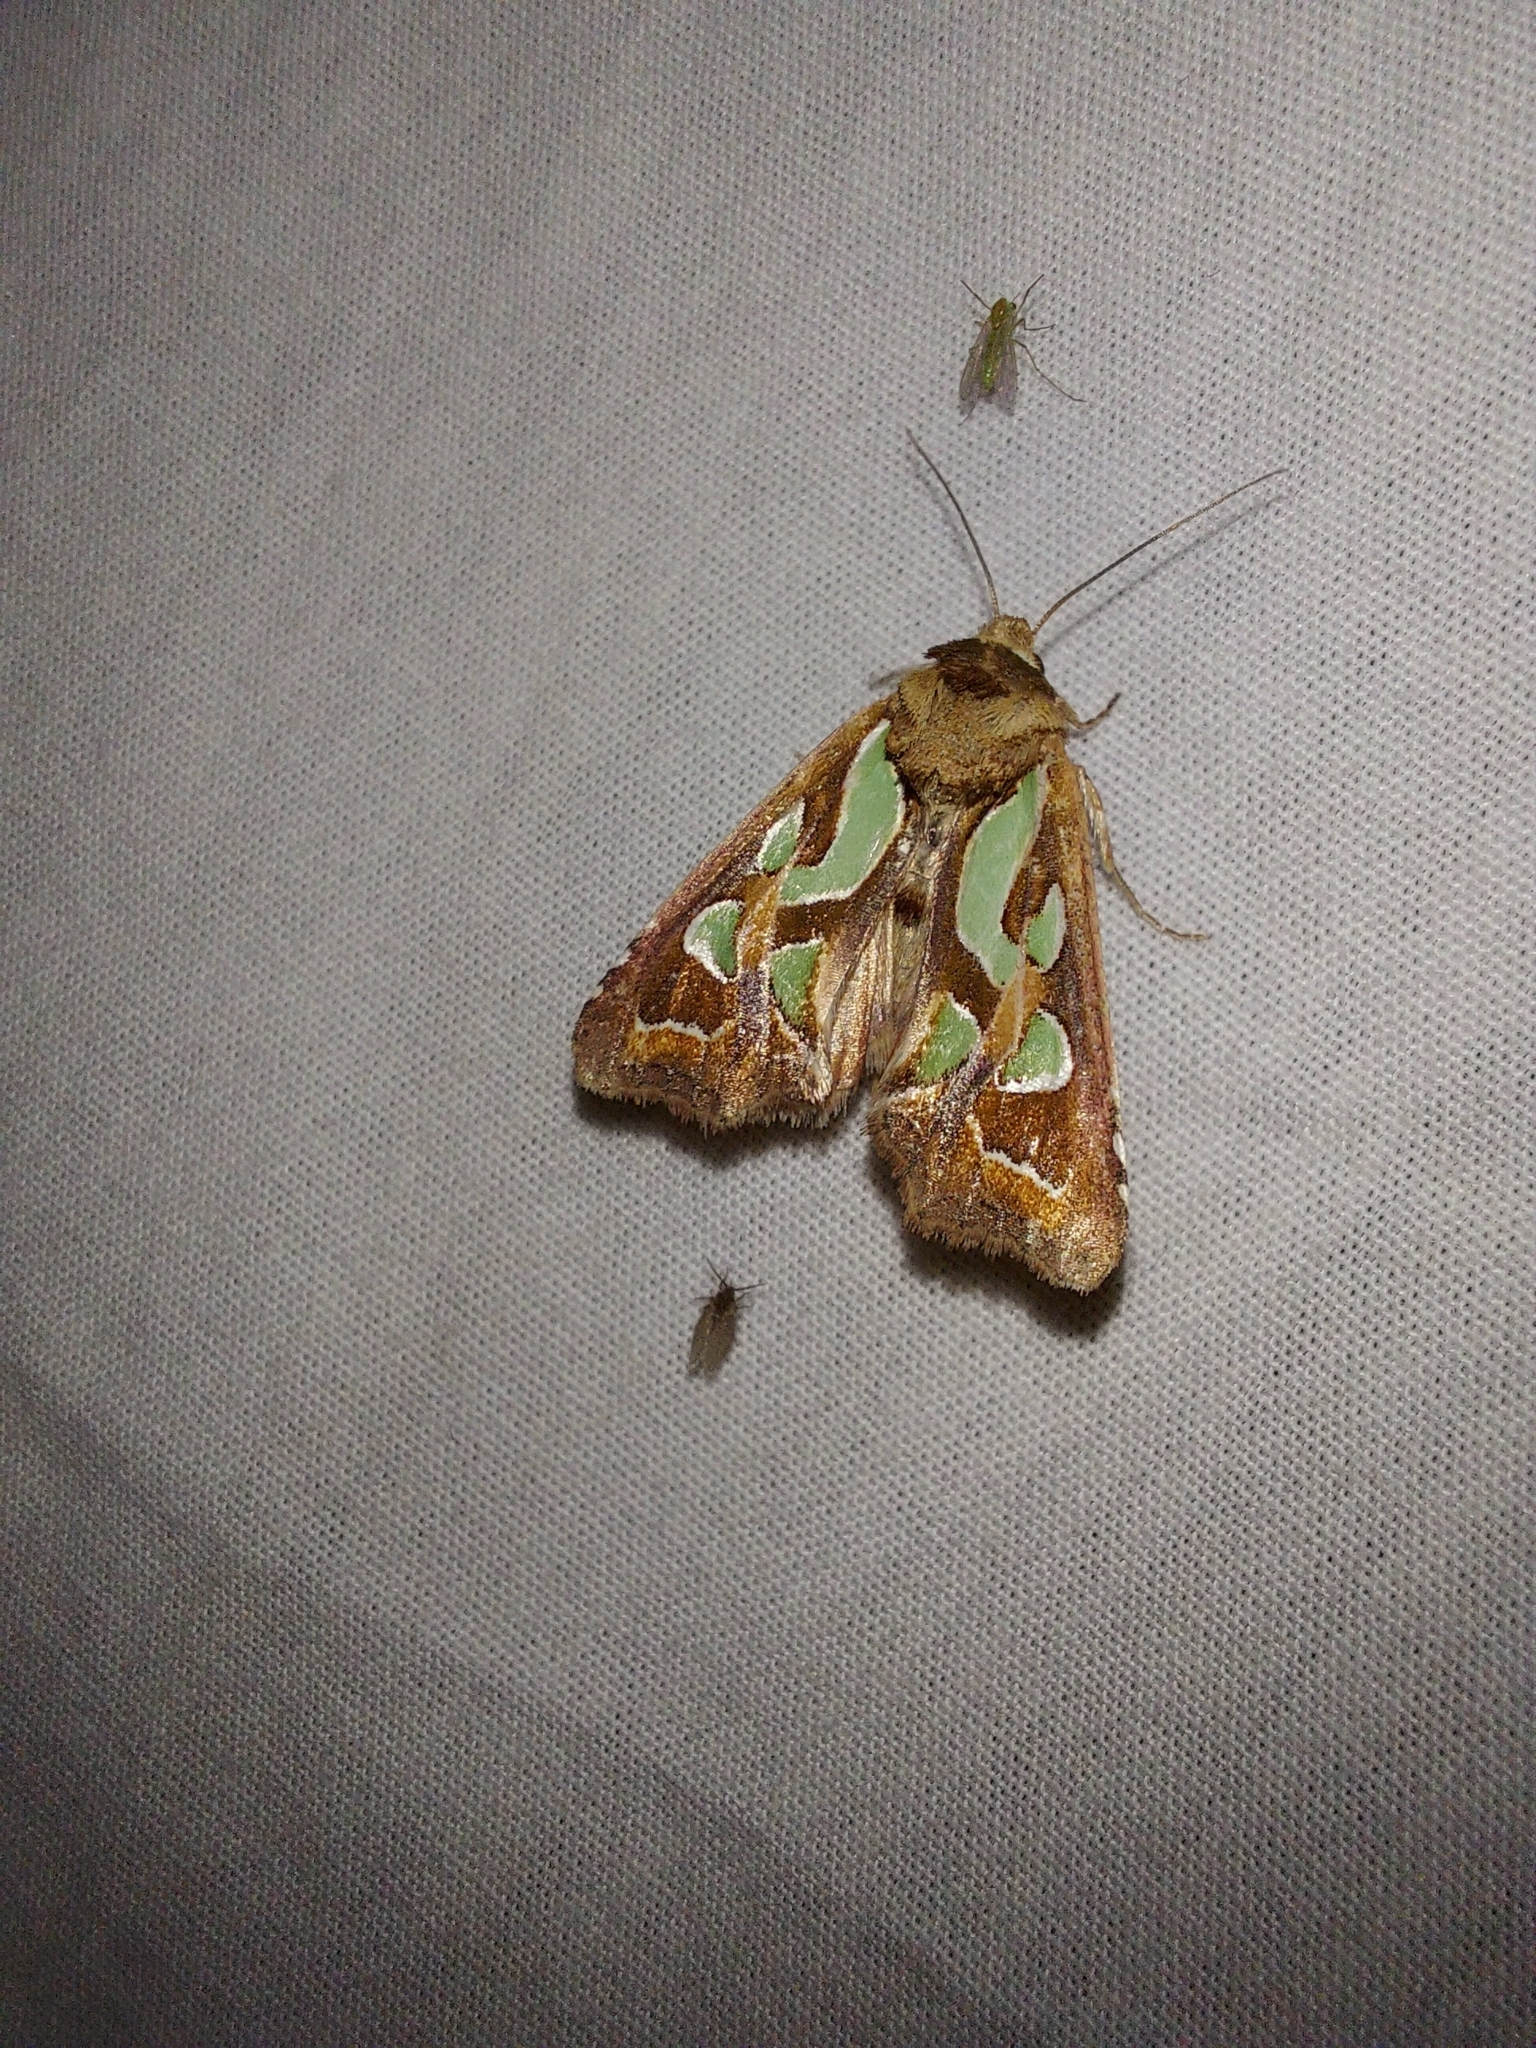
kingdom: Animalia
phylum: Arthropoda
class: Insecta
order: Lepidoptera
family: Noctuidae
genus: Cosmodes
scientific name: Cosmodes elegans
